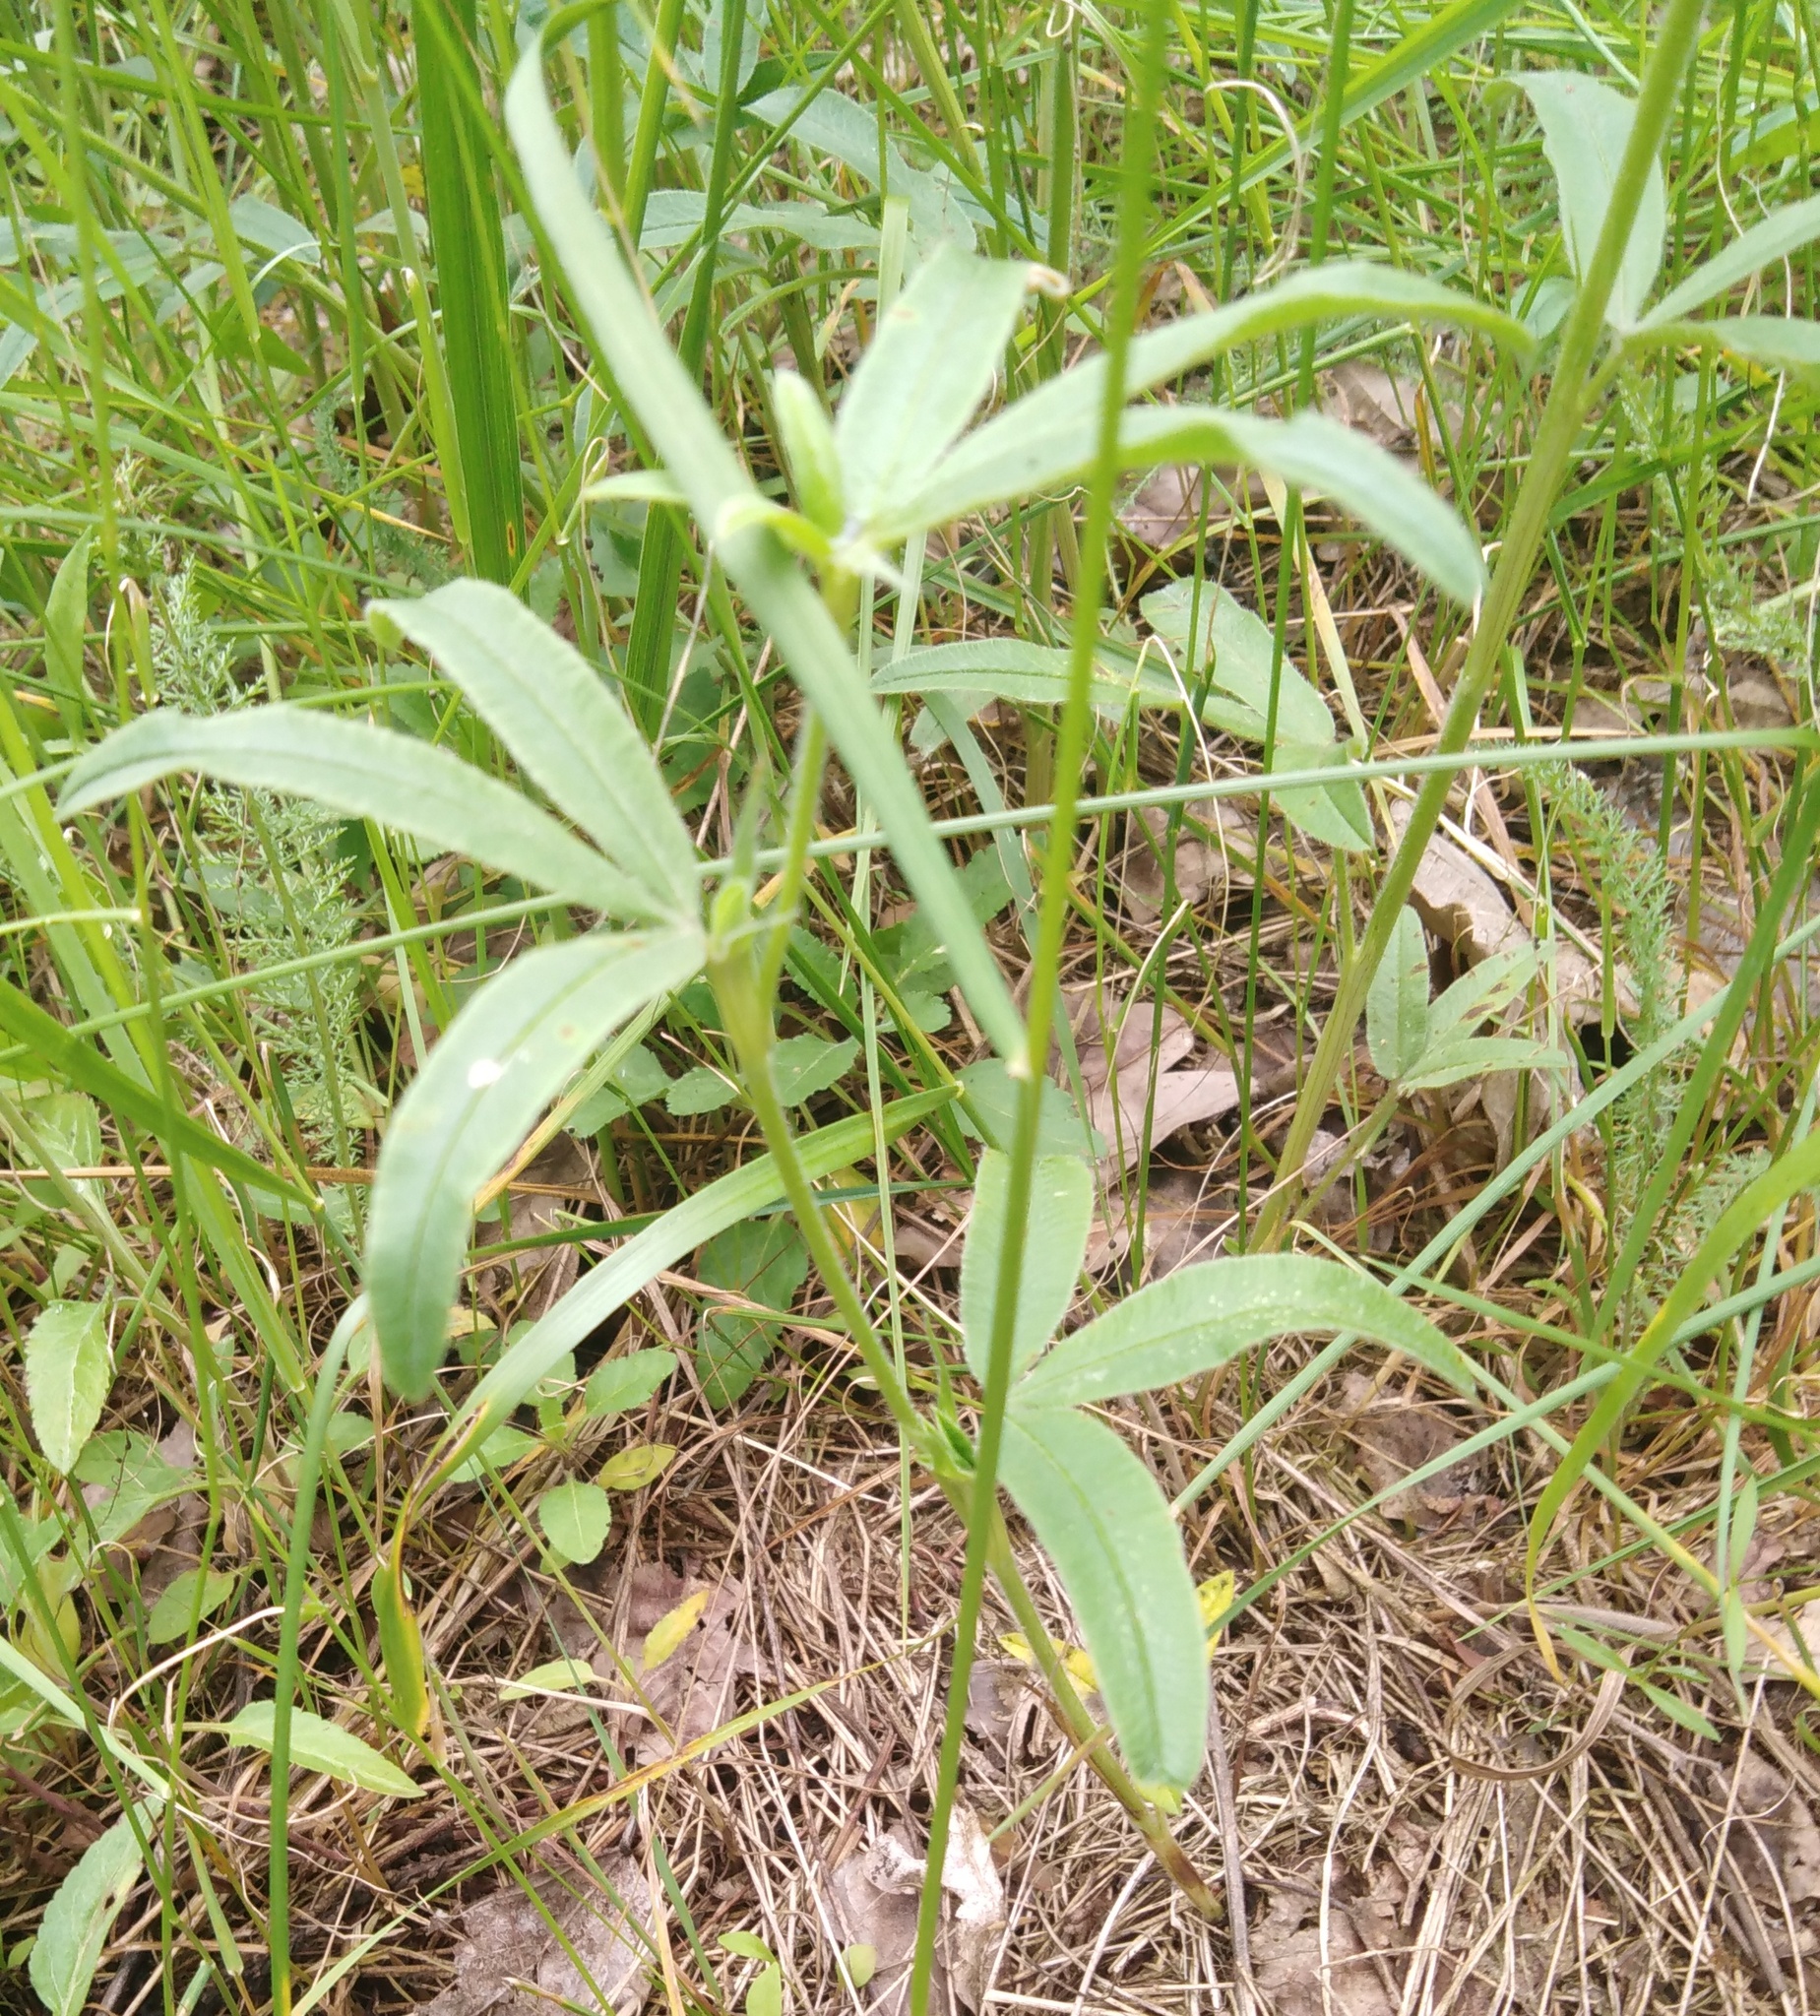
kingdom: Plantae
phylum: Tracheophyta
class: Magnoliopsida
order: Fabales
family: Fabaceae
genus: Trifolium
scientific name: Trifolium alpestre
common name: Owl-head clover
